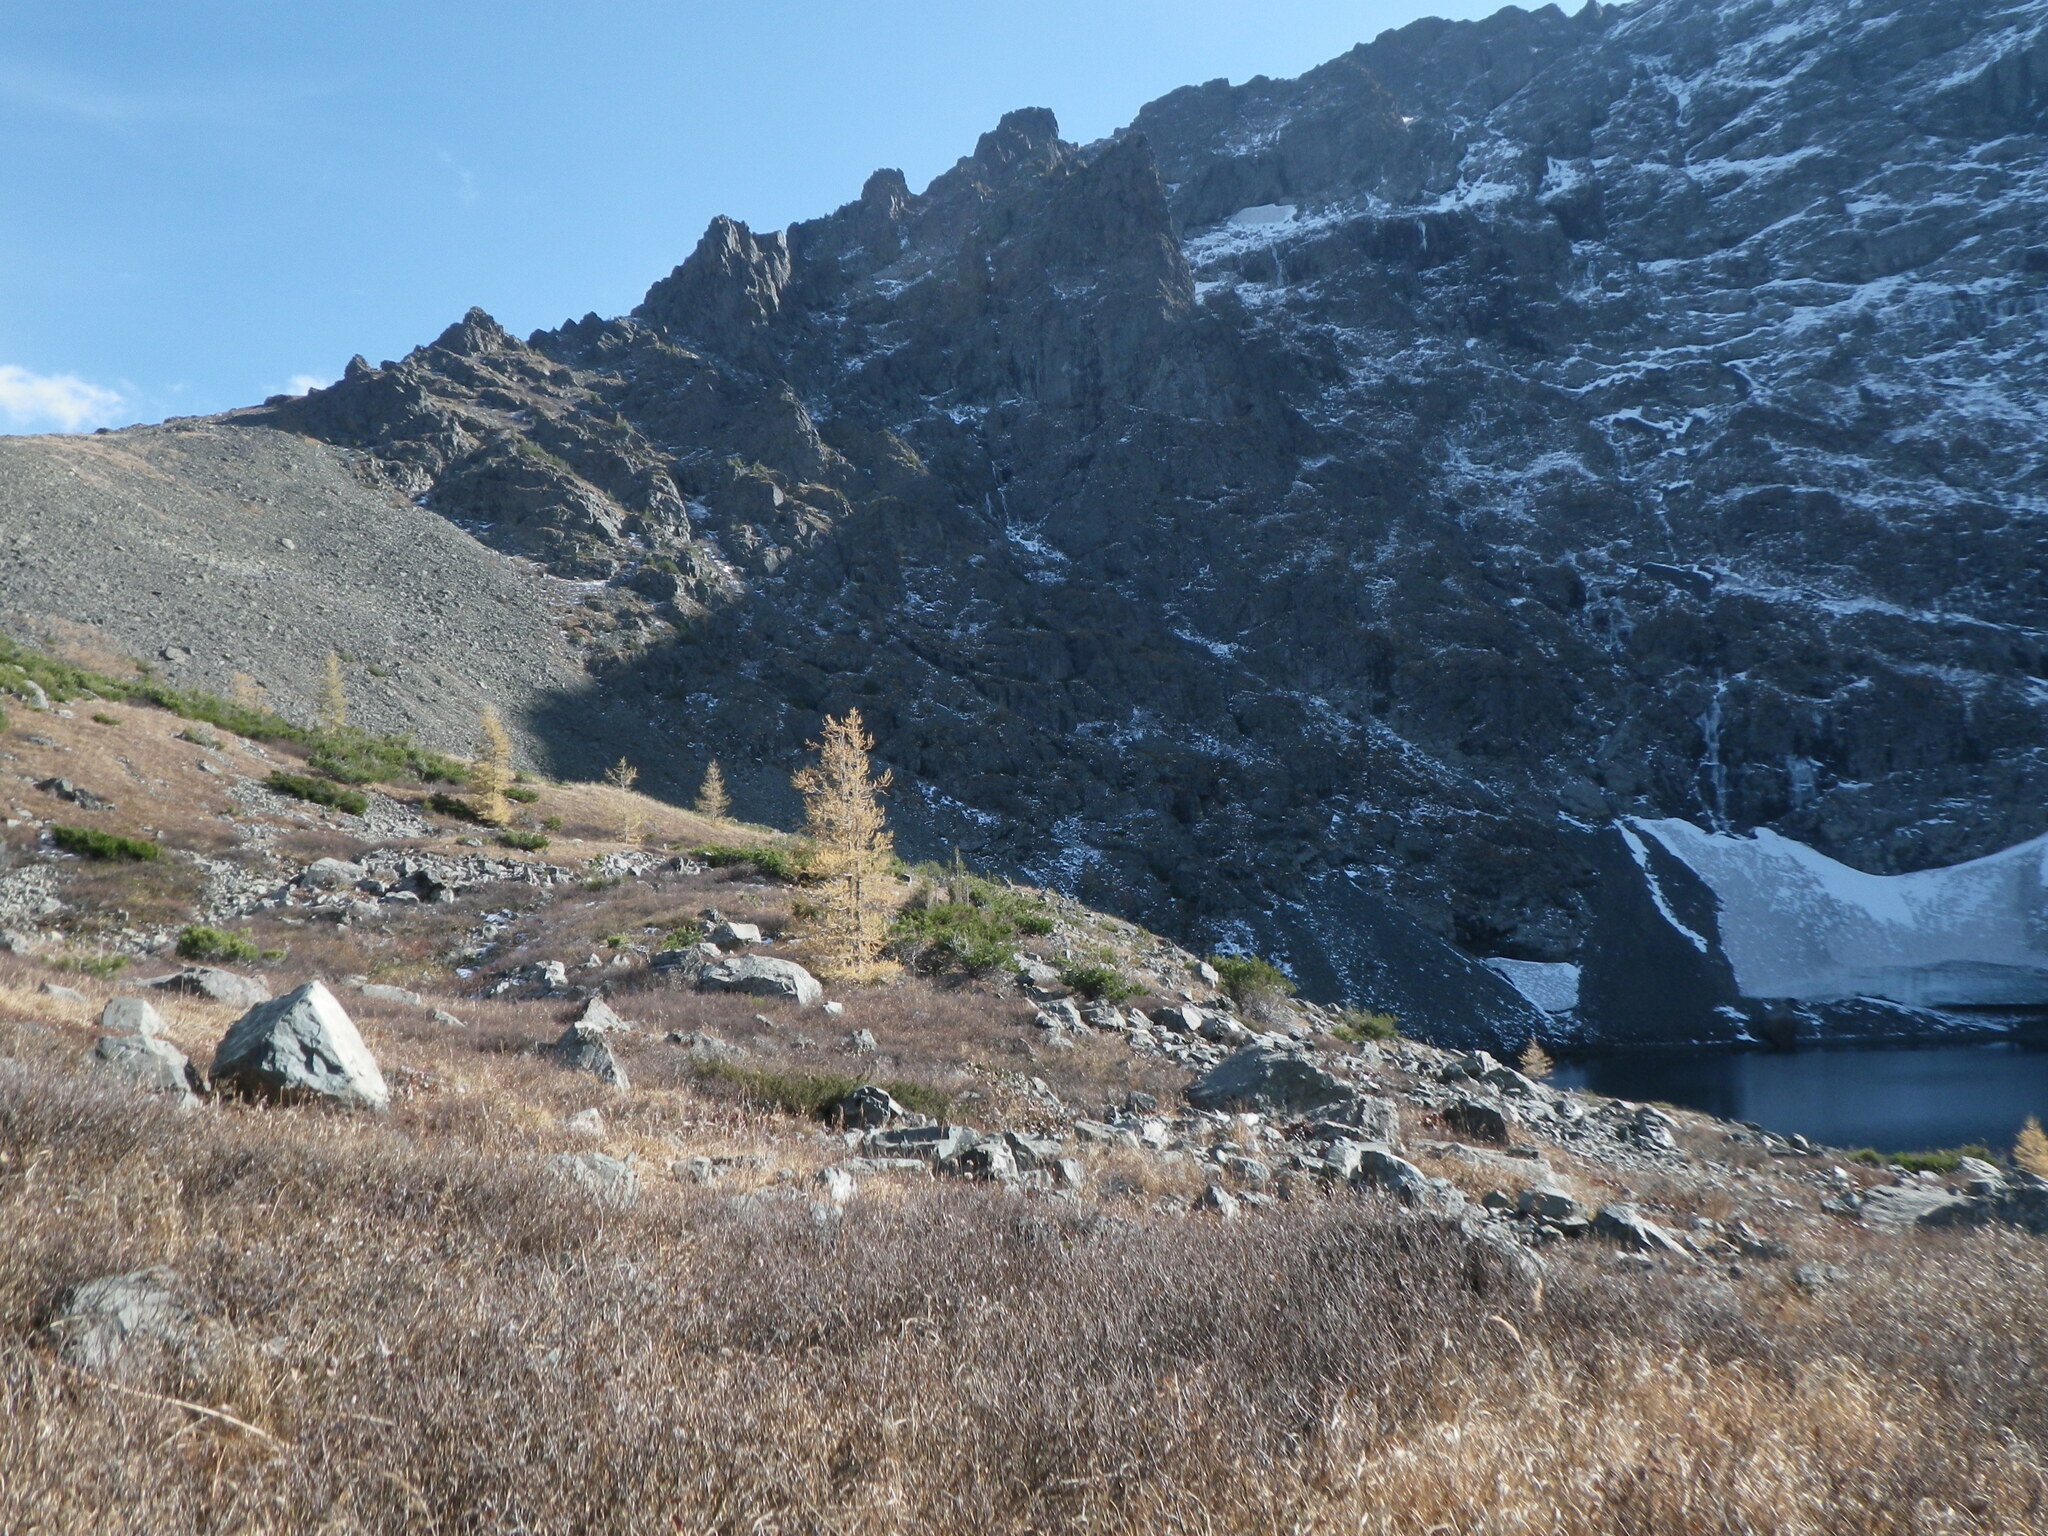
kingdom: Plantae
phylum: Tracheophyta
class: Pinopsida
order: Pinales
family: Pinaceae
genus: Larix
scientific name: Larix sibirica
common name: Siberian larch
